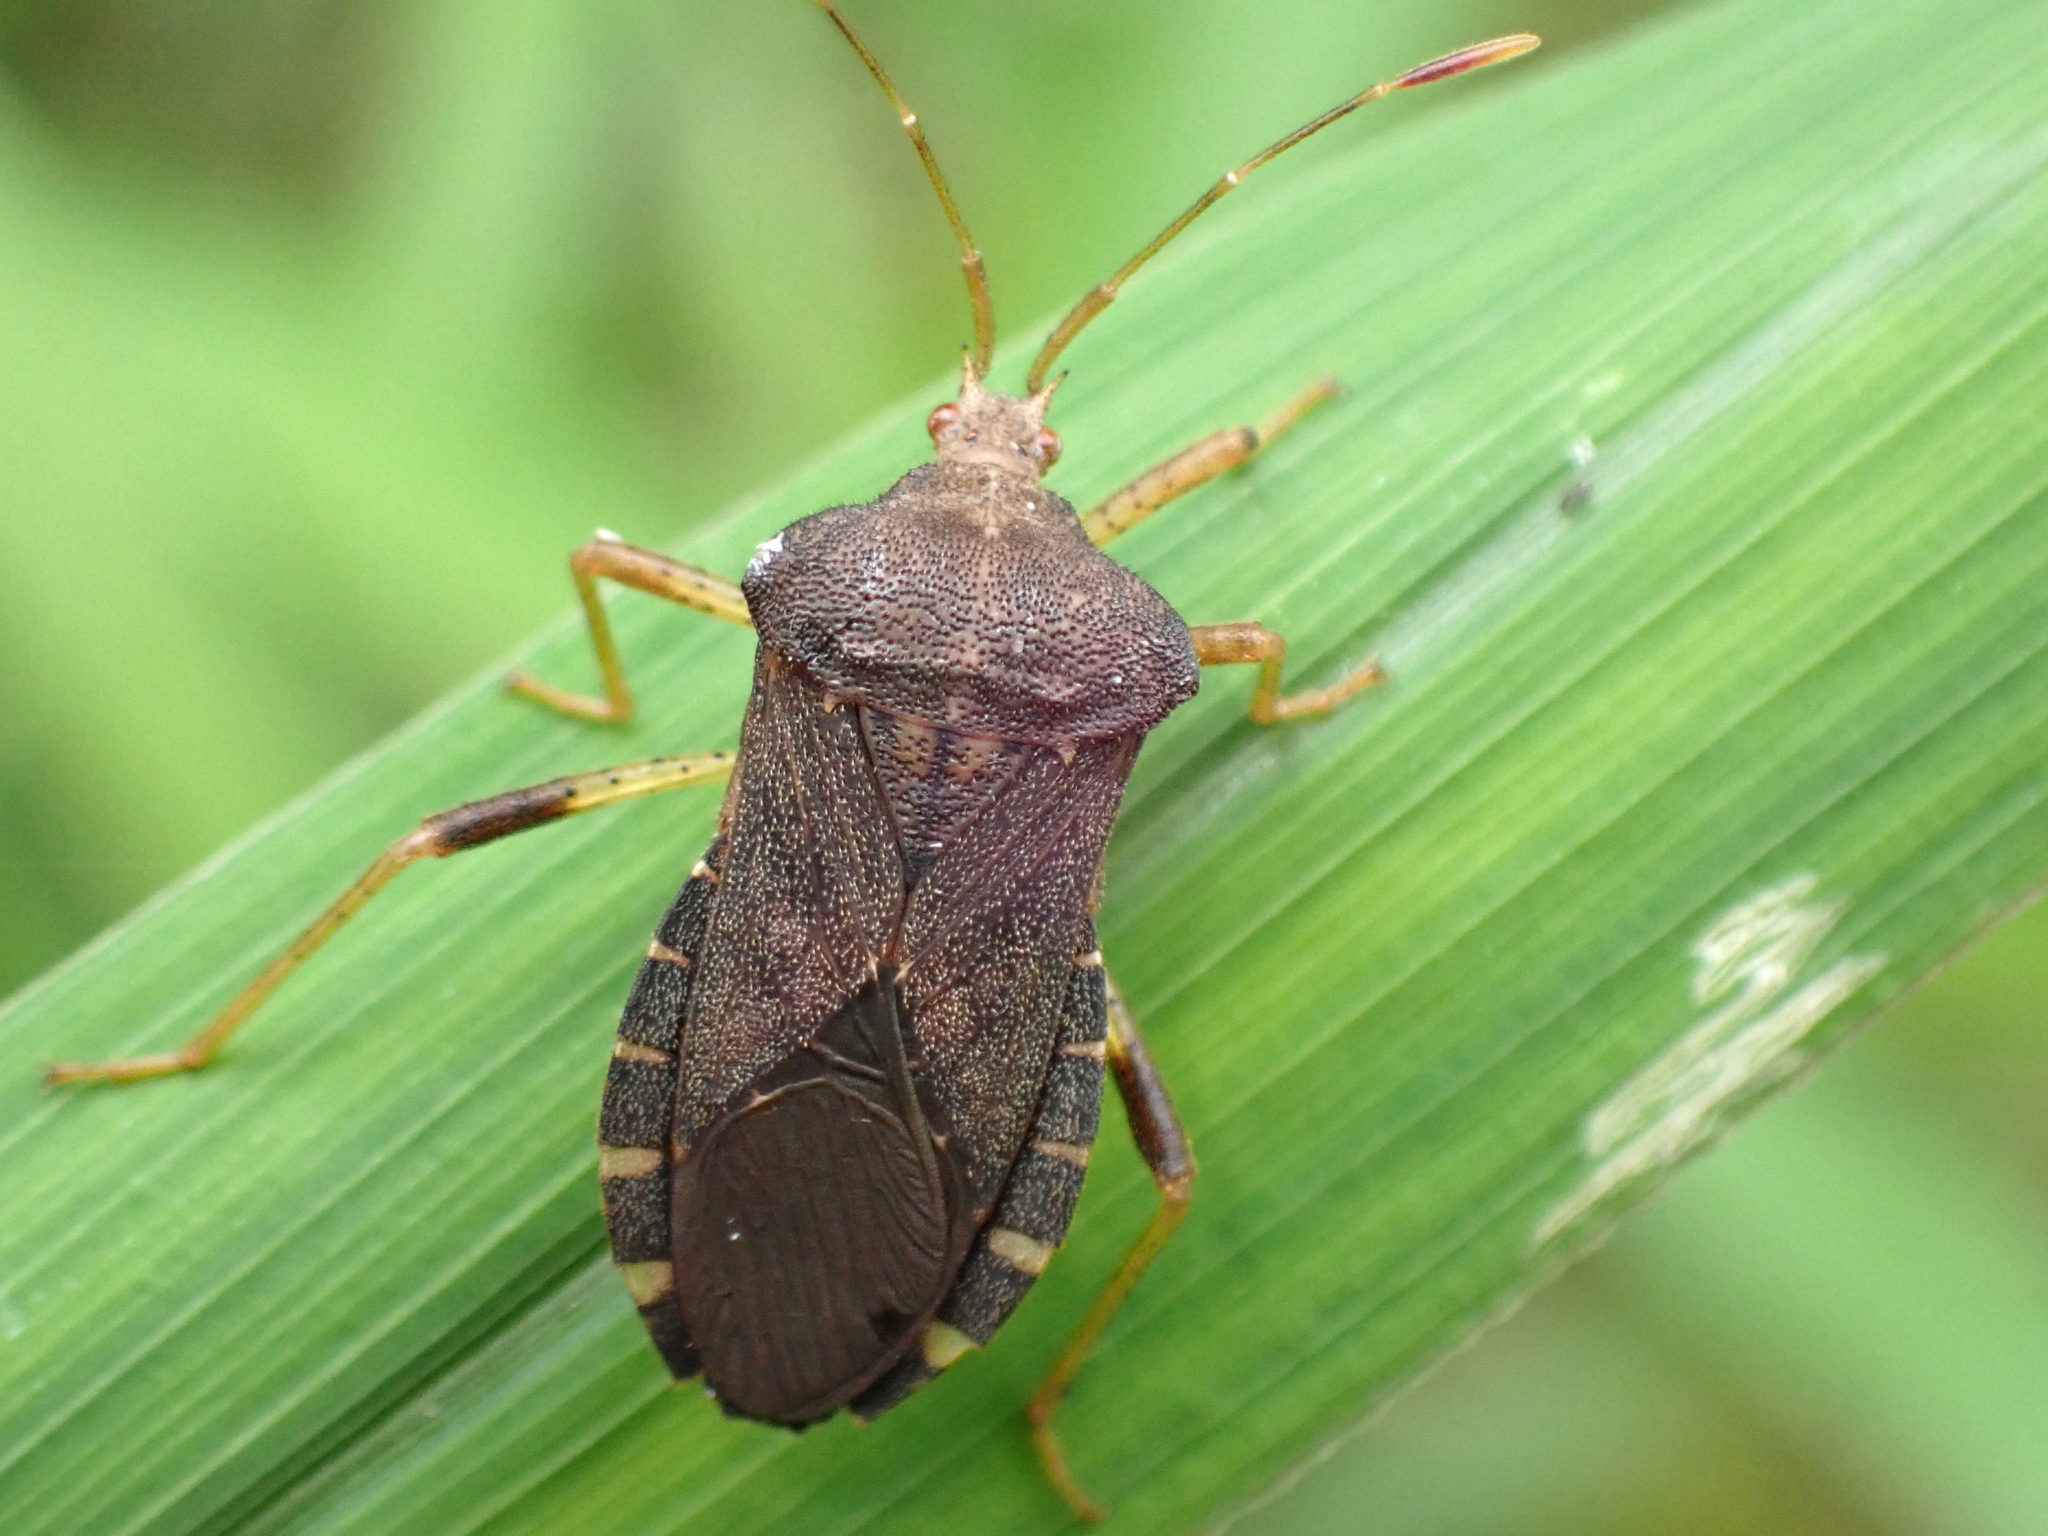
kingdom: Animalia
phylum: Arthropoda
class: Insecta
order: Hemiptera
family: Coreidae
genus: Anasa
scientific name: Anasa scorbutica
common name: Squash bug
